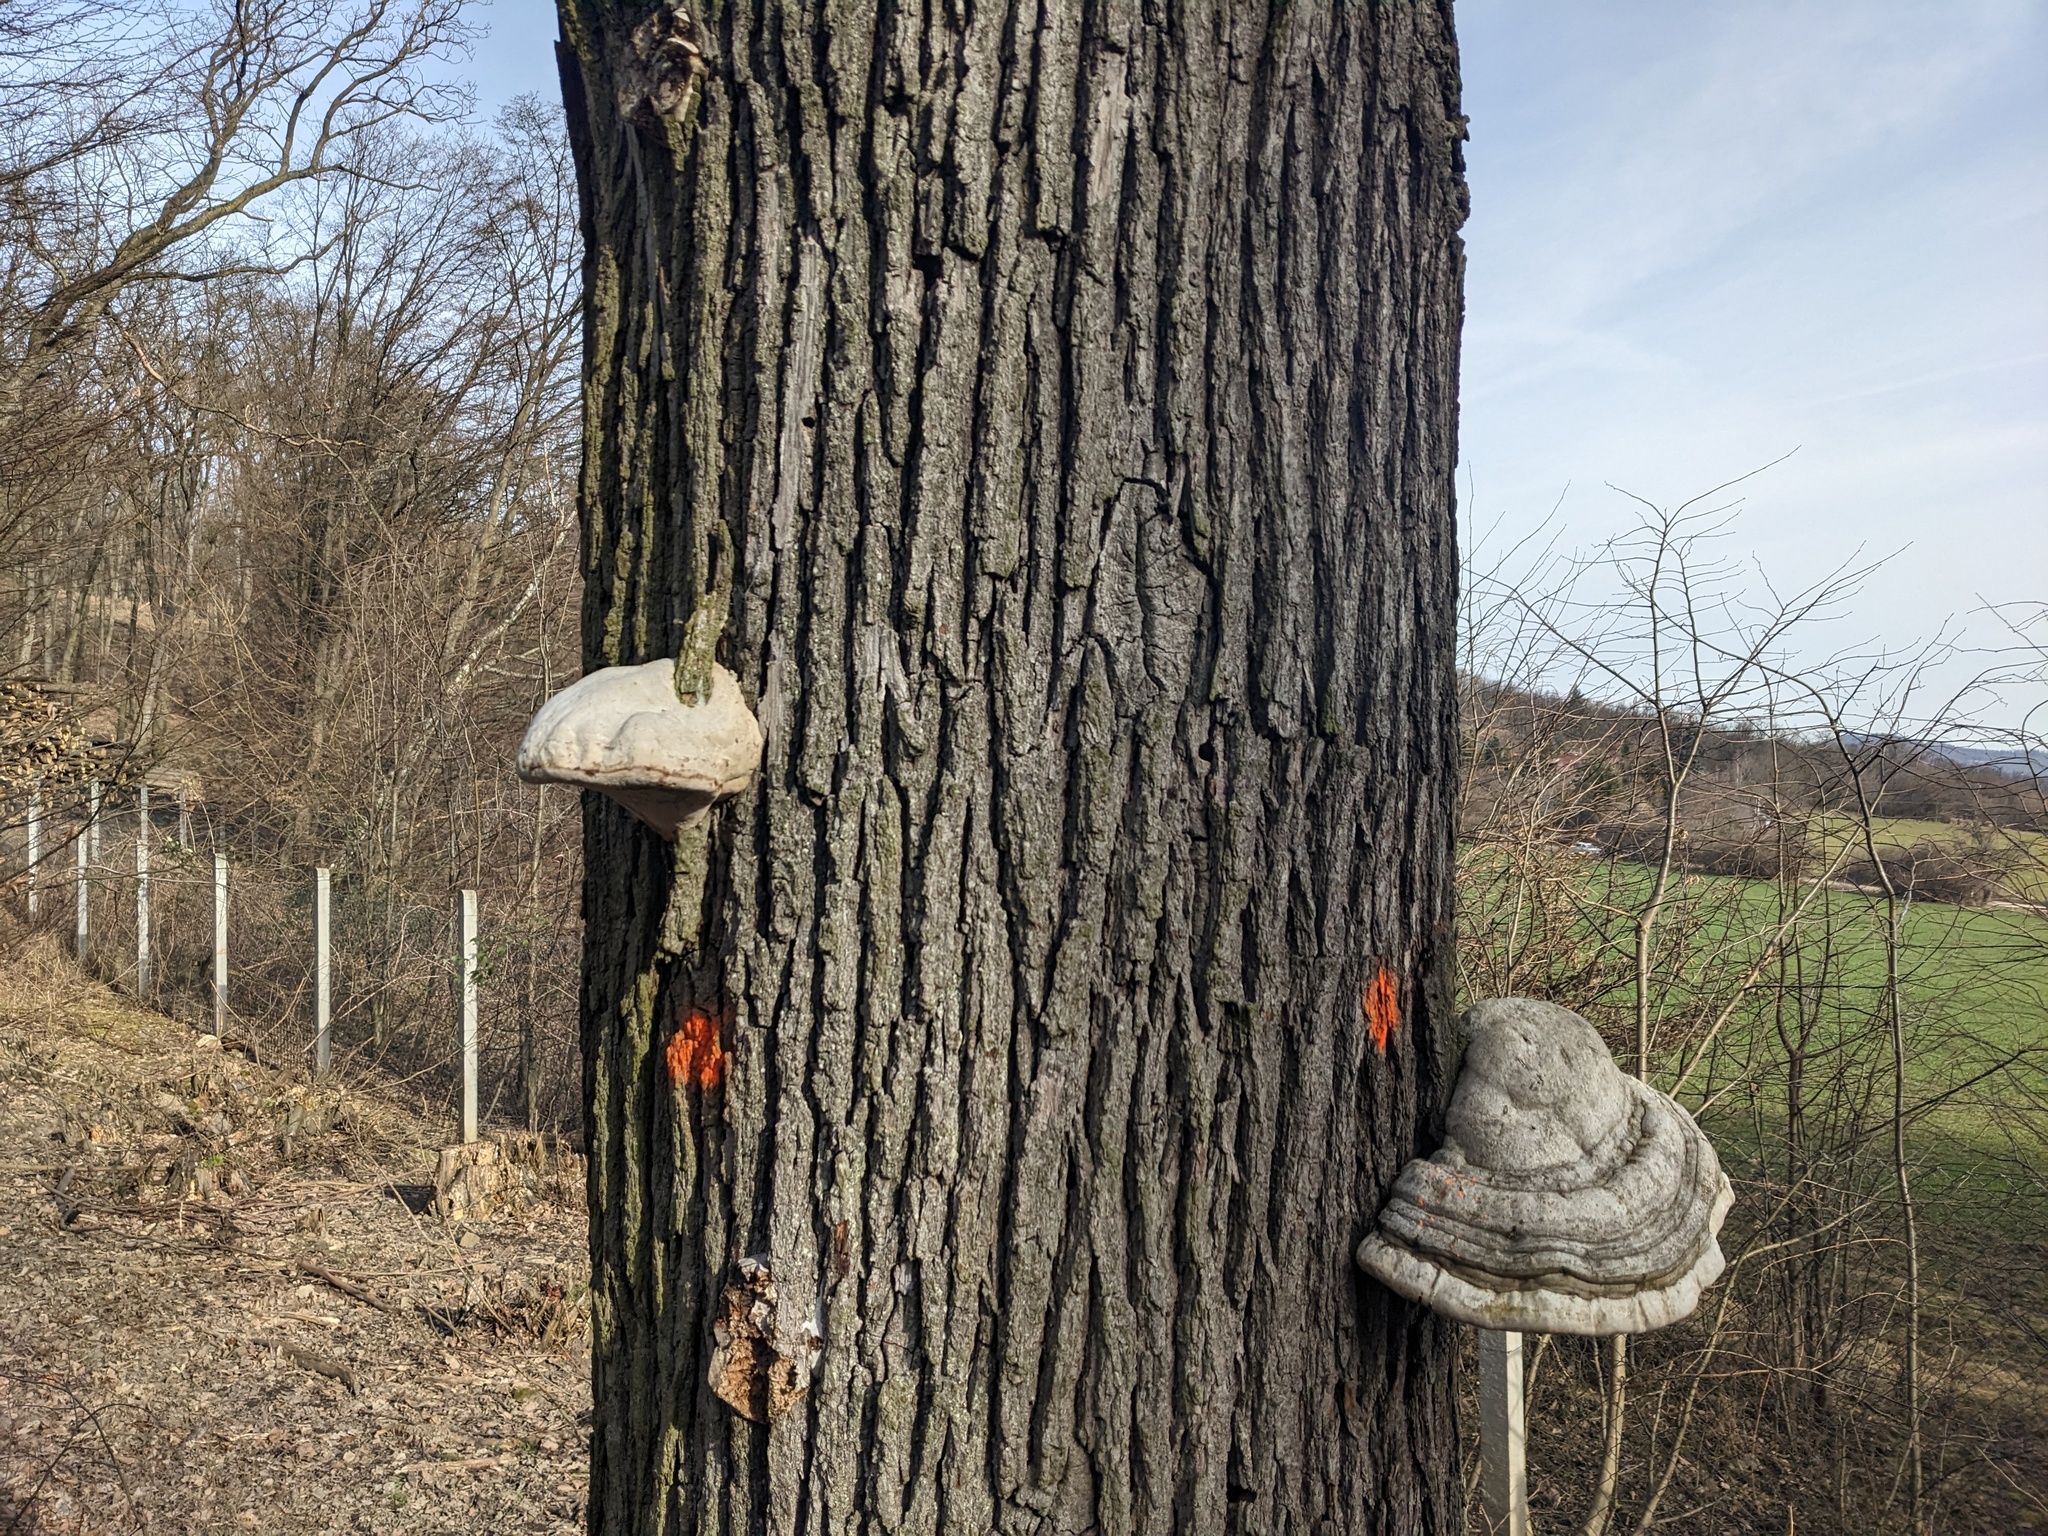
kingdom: Fungi
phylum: Basidiomycota
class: Agaricomycetes
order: Polyporales
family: Polyporaceae
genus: Fomes
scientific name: Fomes fomentarius
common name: Hoof fungus
